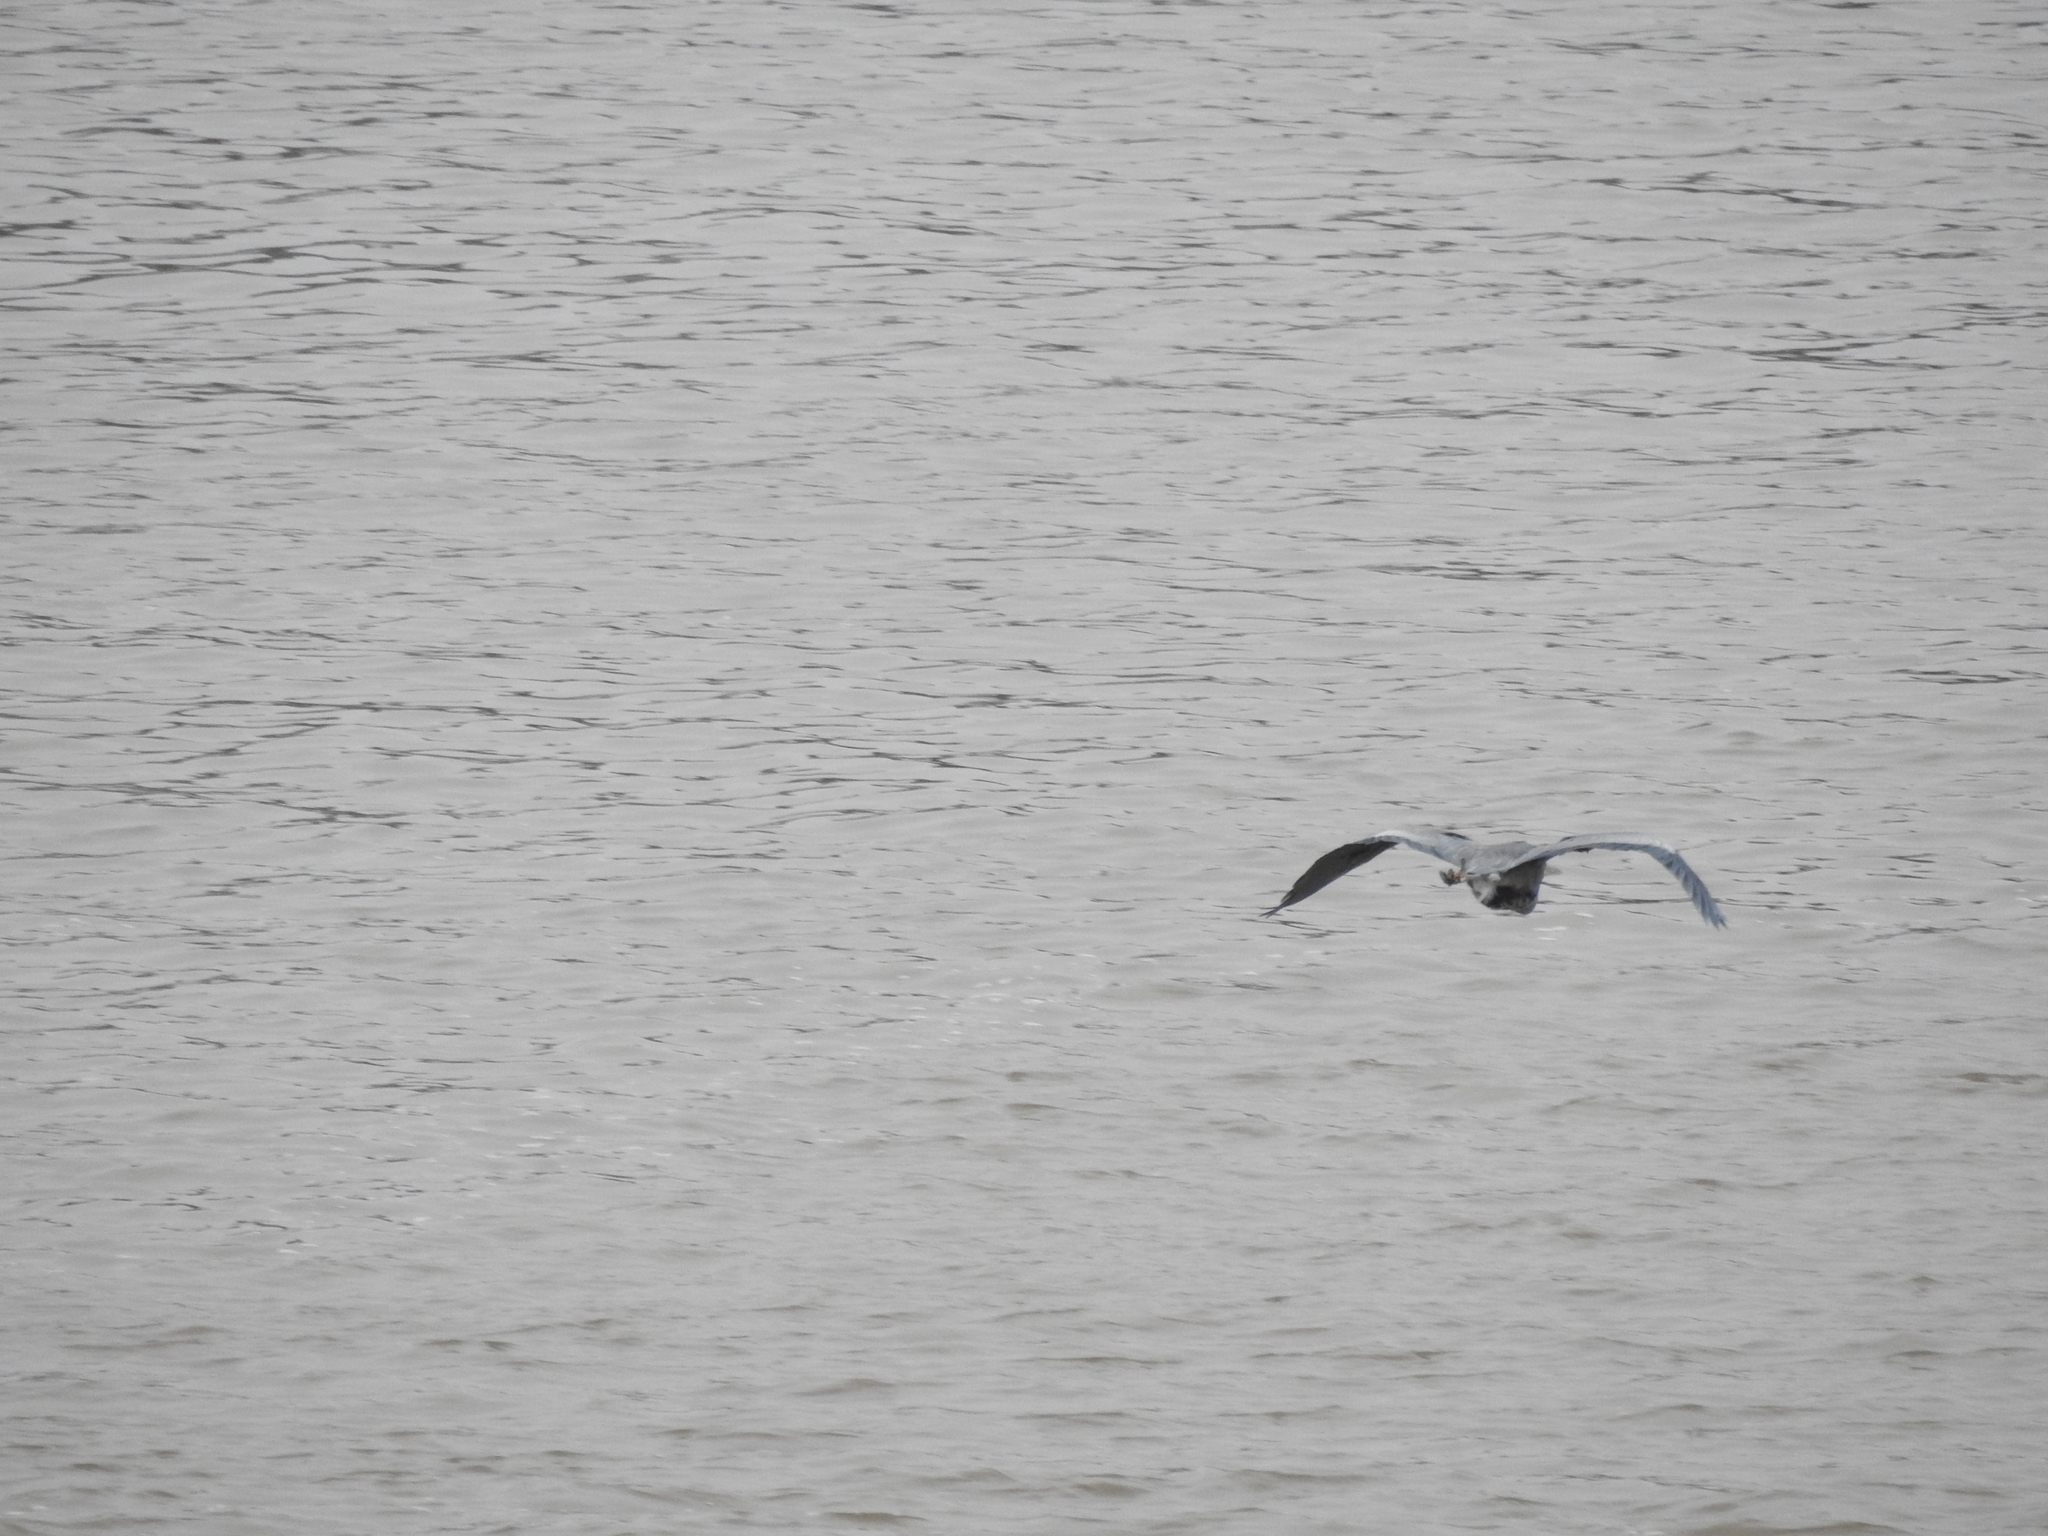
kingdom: Animalia
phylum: Chordata
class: Aves
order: Pelecaniformes
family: Ardeidae
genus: Ardea
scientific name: Ardea herodias
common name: Great blue heron
